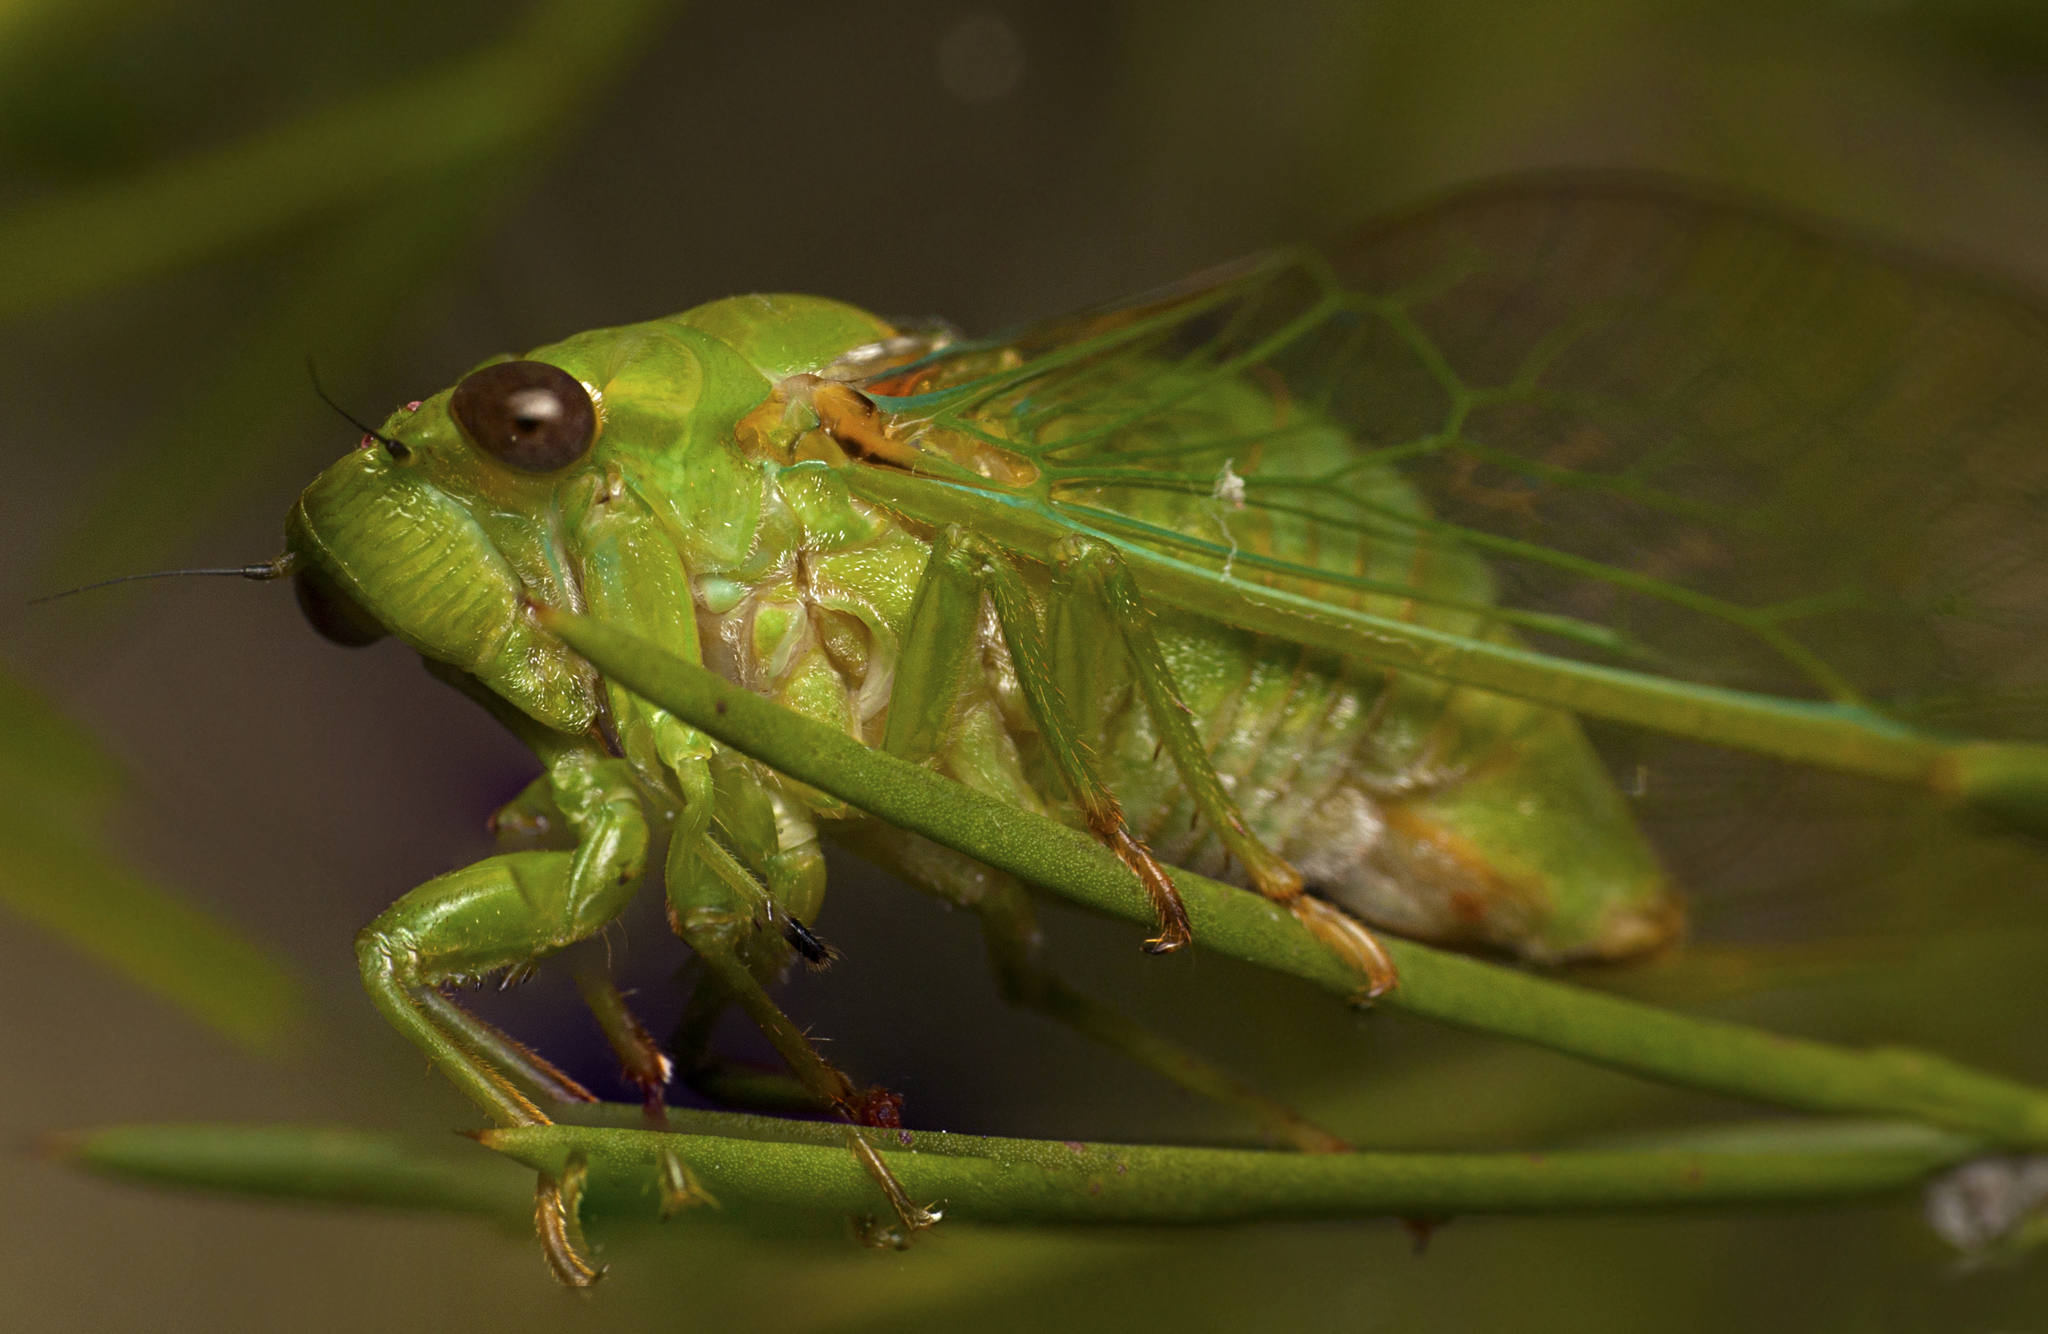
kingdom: Animalia
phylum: Arthropoda
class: Insecta
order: Hemiptera
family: Cicadidae
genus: Glaucopsaltria
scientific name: Glaucopsaltria viridis
